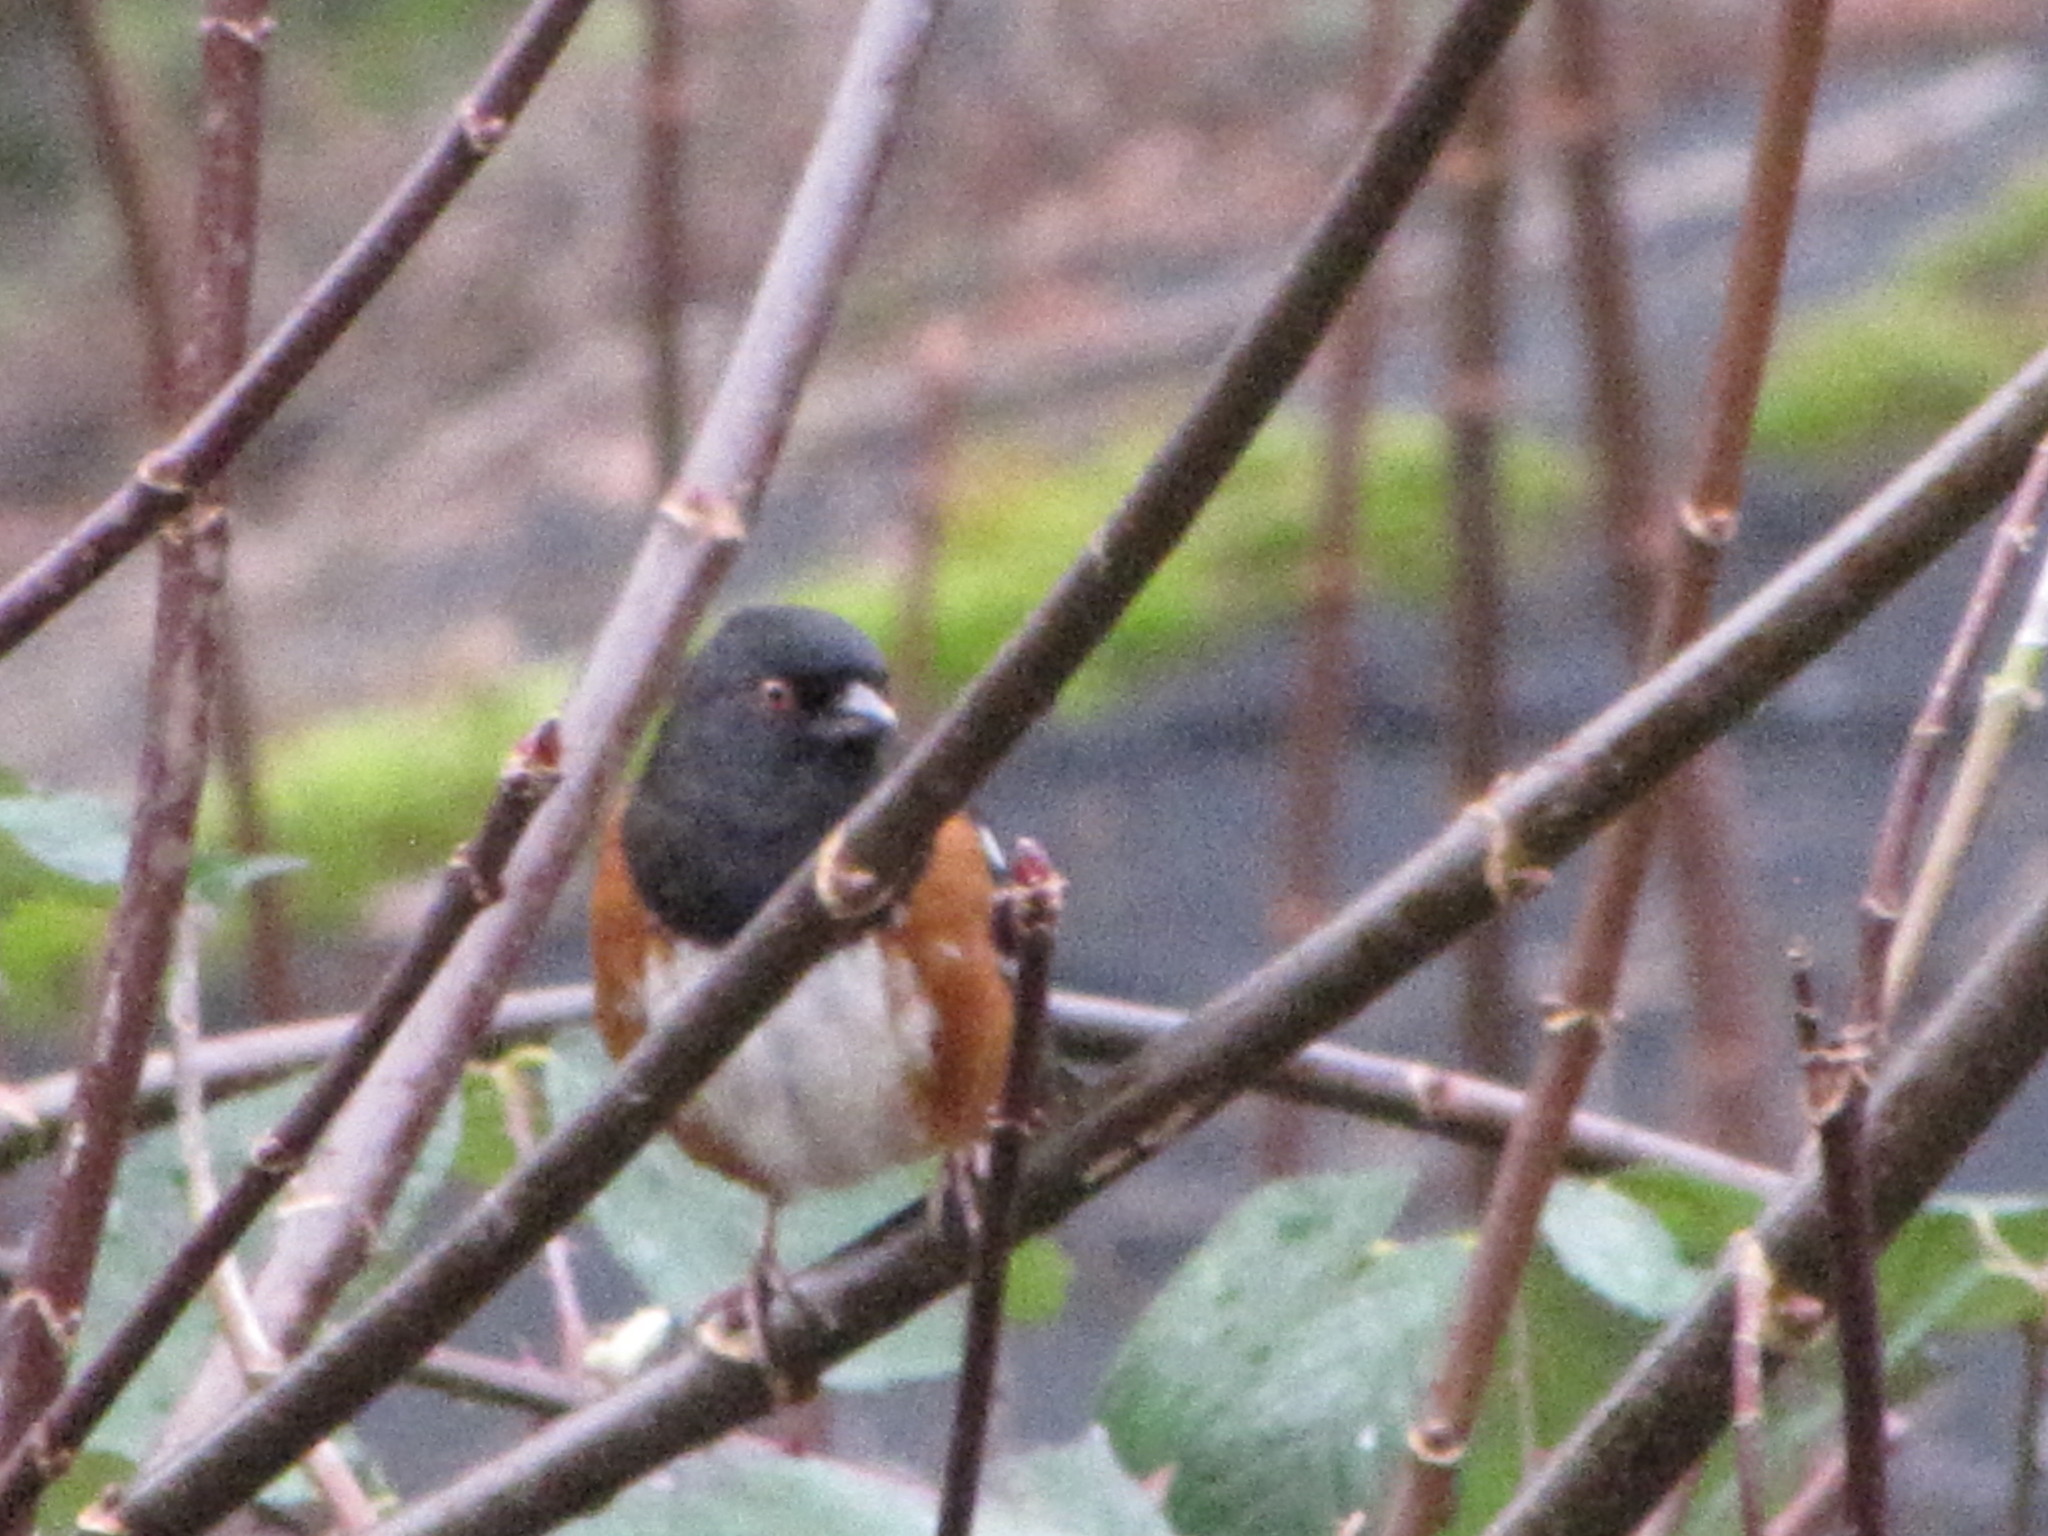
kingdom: Animalia
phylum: Chordata
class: Aves
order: Passeriformes
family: Passerellidae
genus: Pipilo
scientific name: Pipilo maculatus
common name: Spotted towhee
